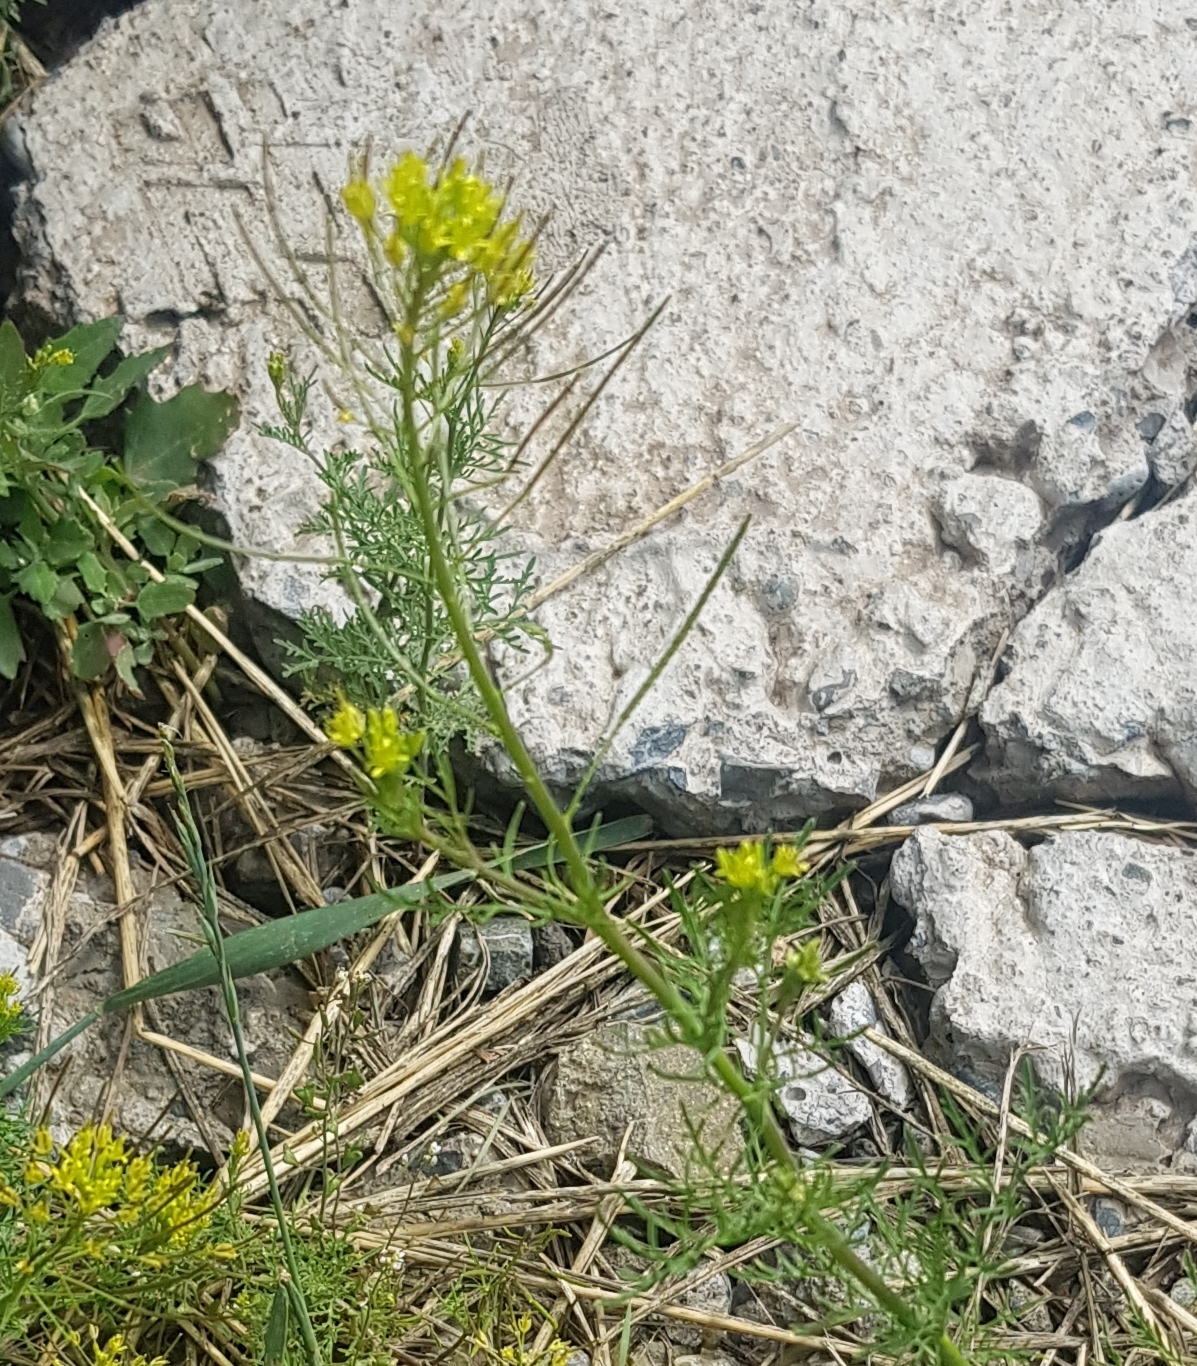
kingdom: Plantae
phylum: Tracheophyta
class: Magnoliopsida
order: Brassicales
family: Brassicaceae
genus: Descurainia
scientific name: Descurainia sophia
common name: Flixweed
